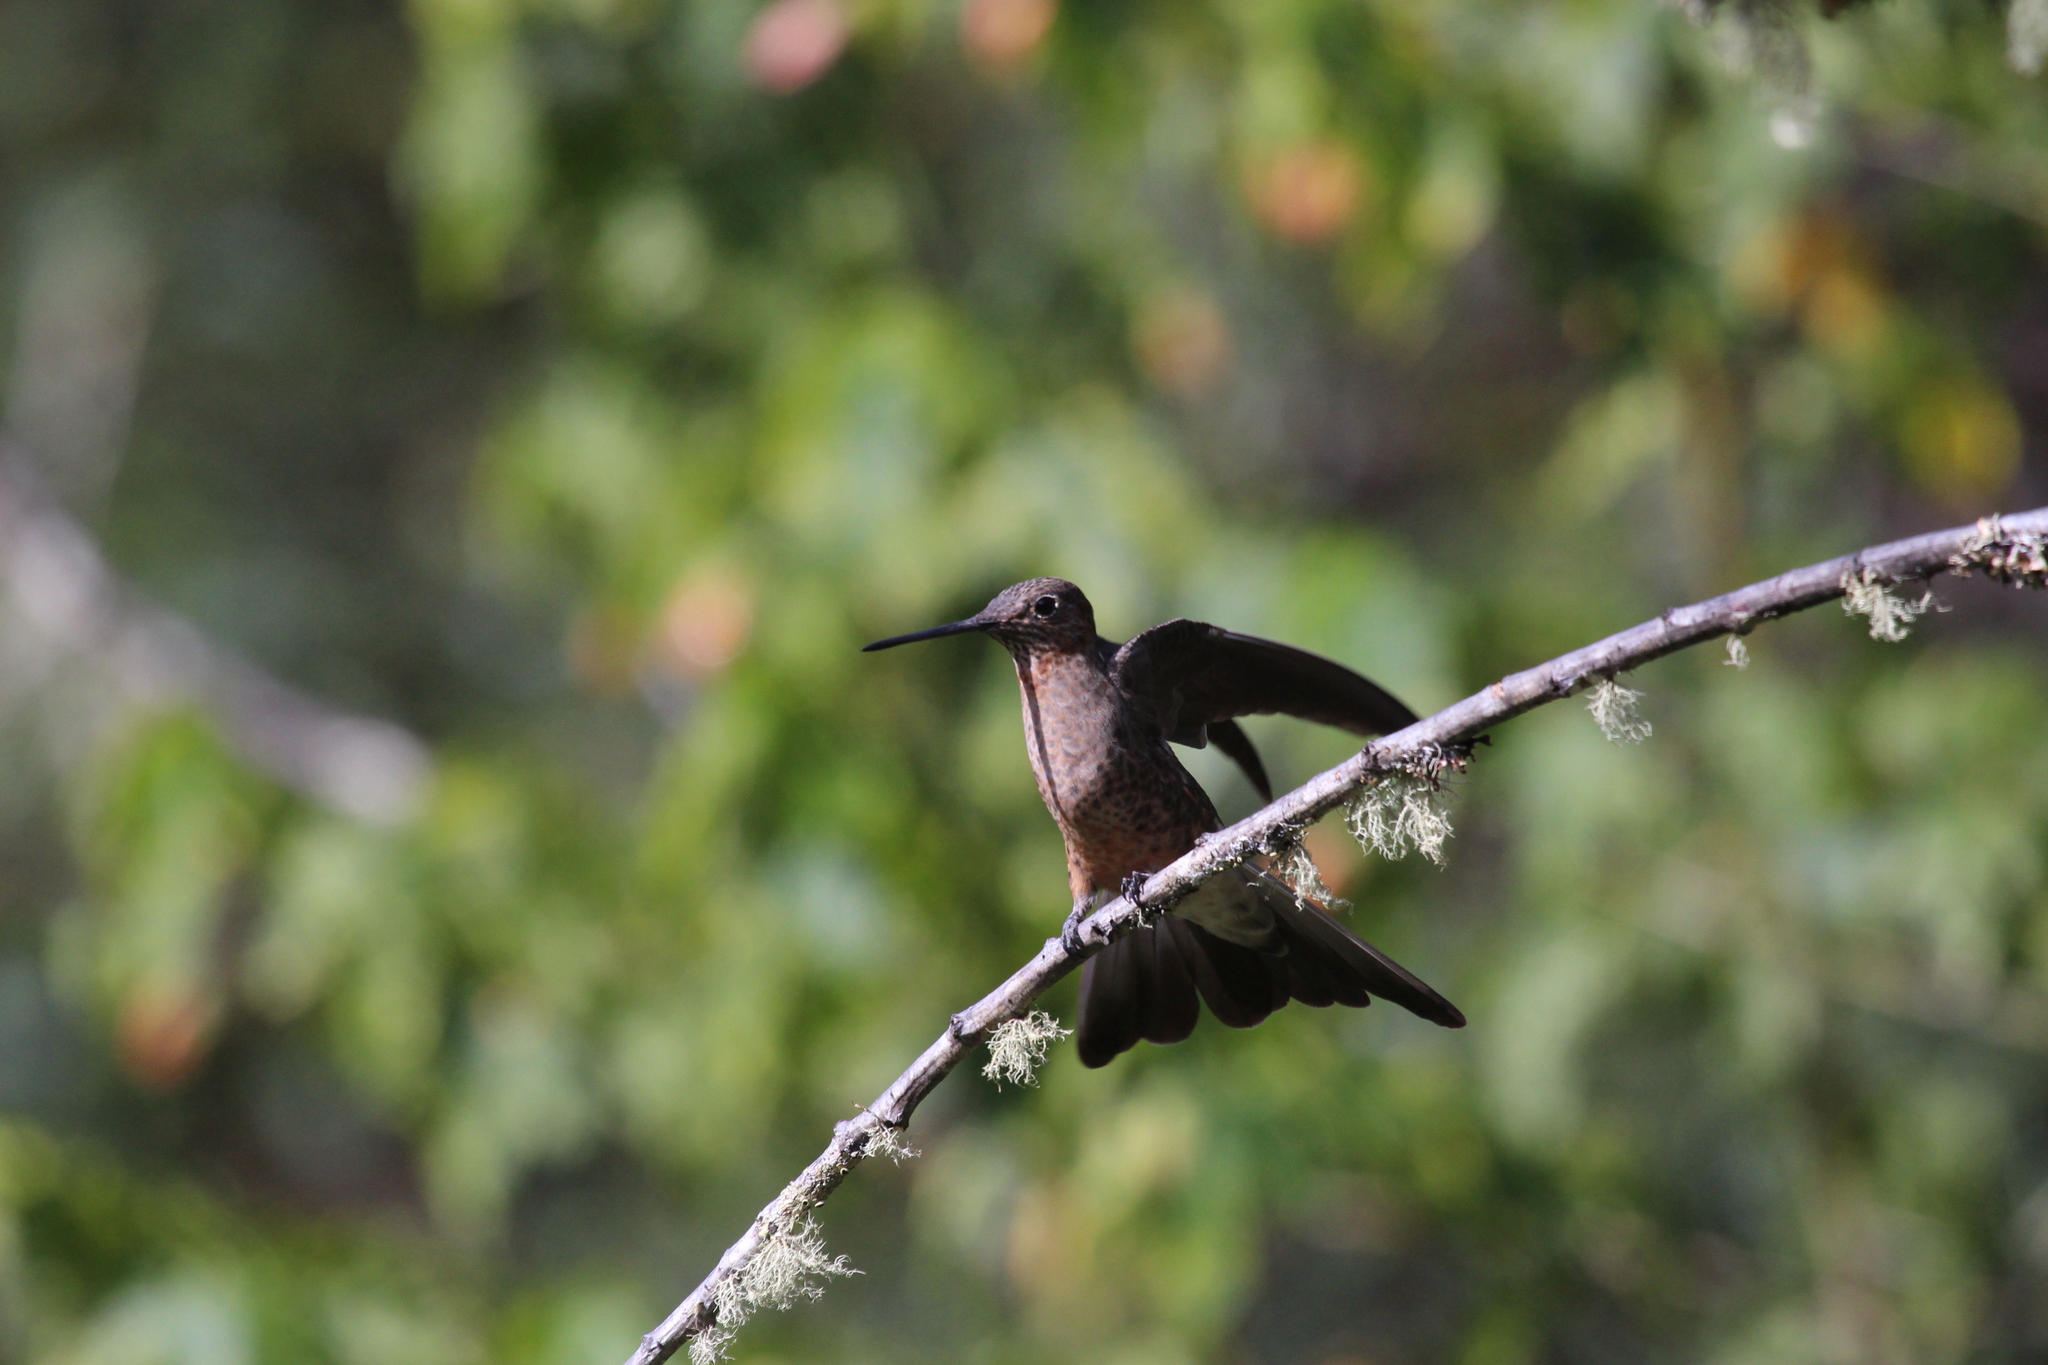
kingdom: Animalia
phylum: Chordata
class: Aves
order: Apodiformes
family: Trochilidae
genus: Patagona
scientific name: Patagona gigas
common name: Giant hummingbird
